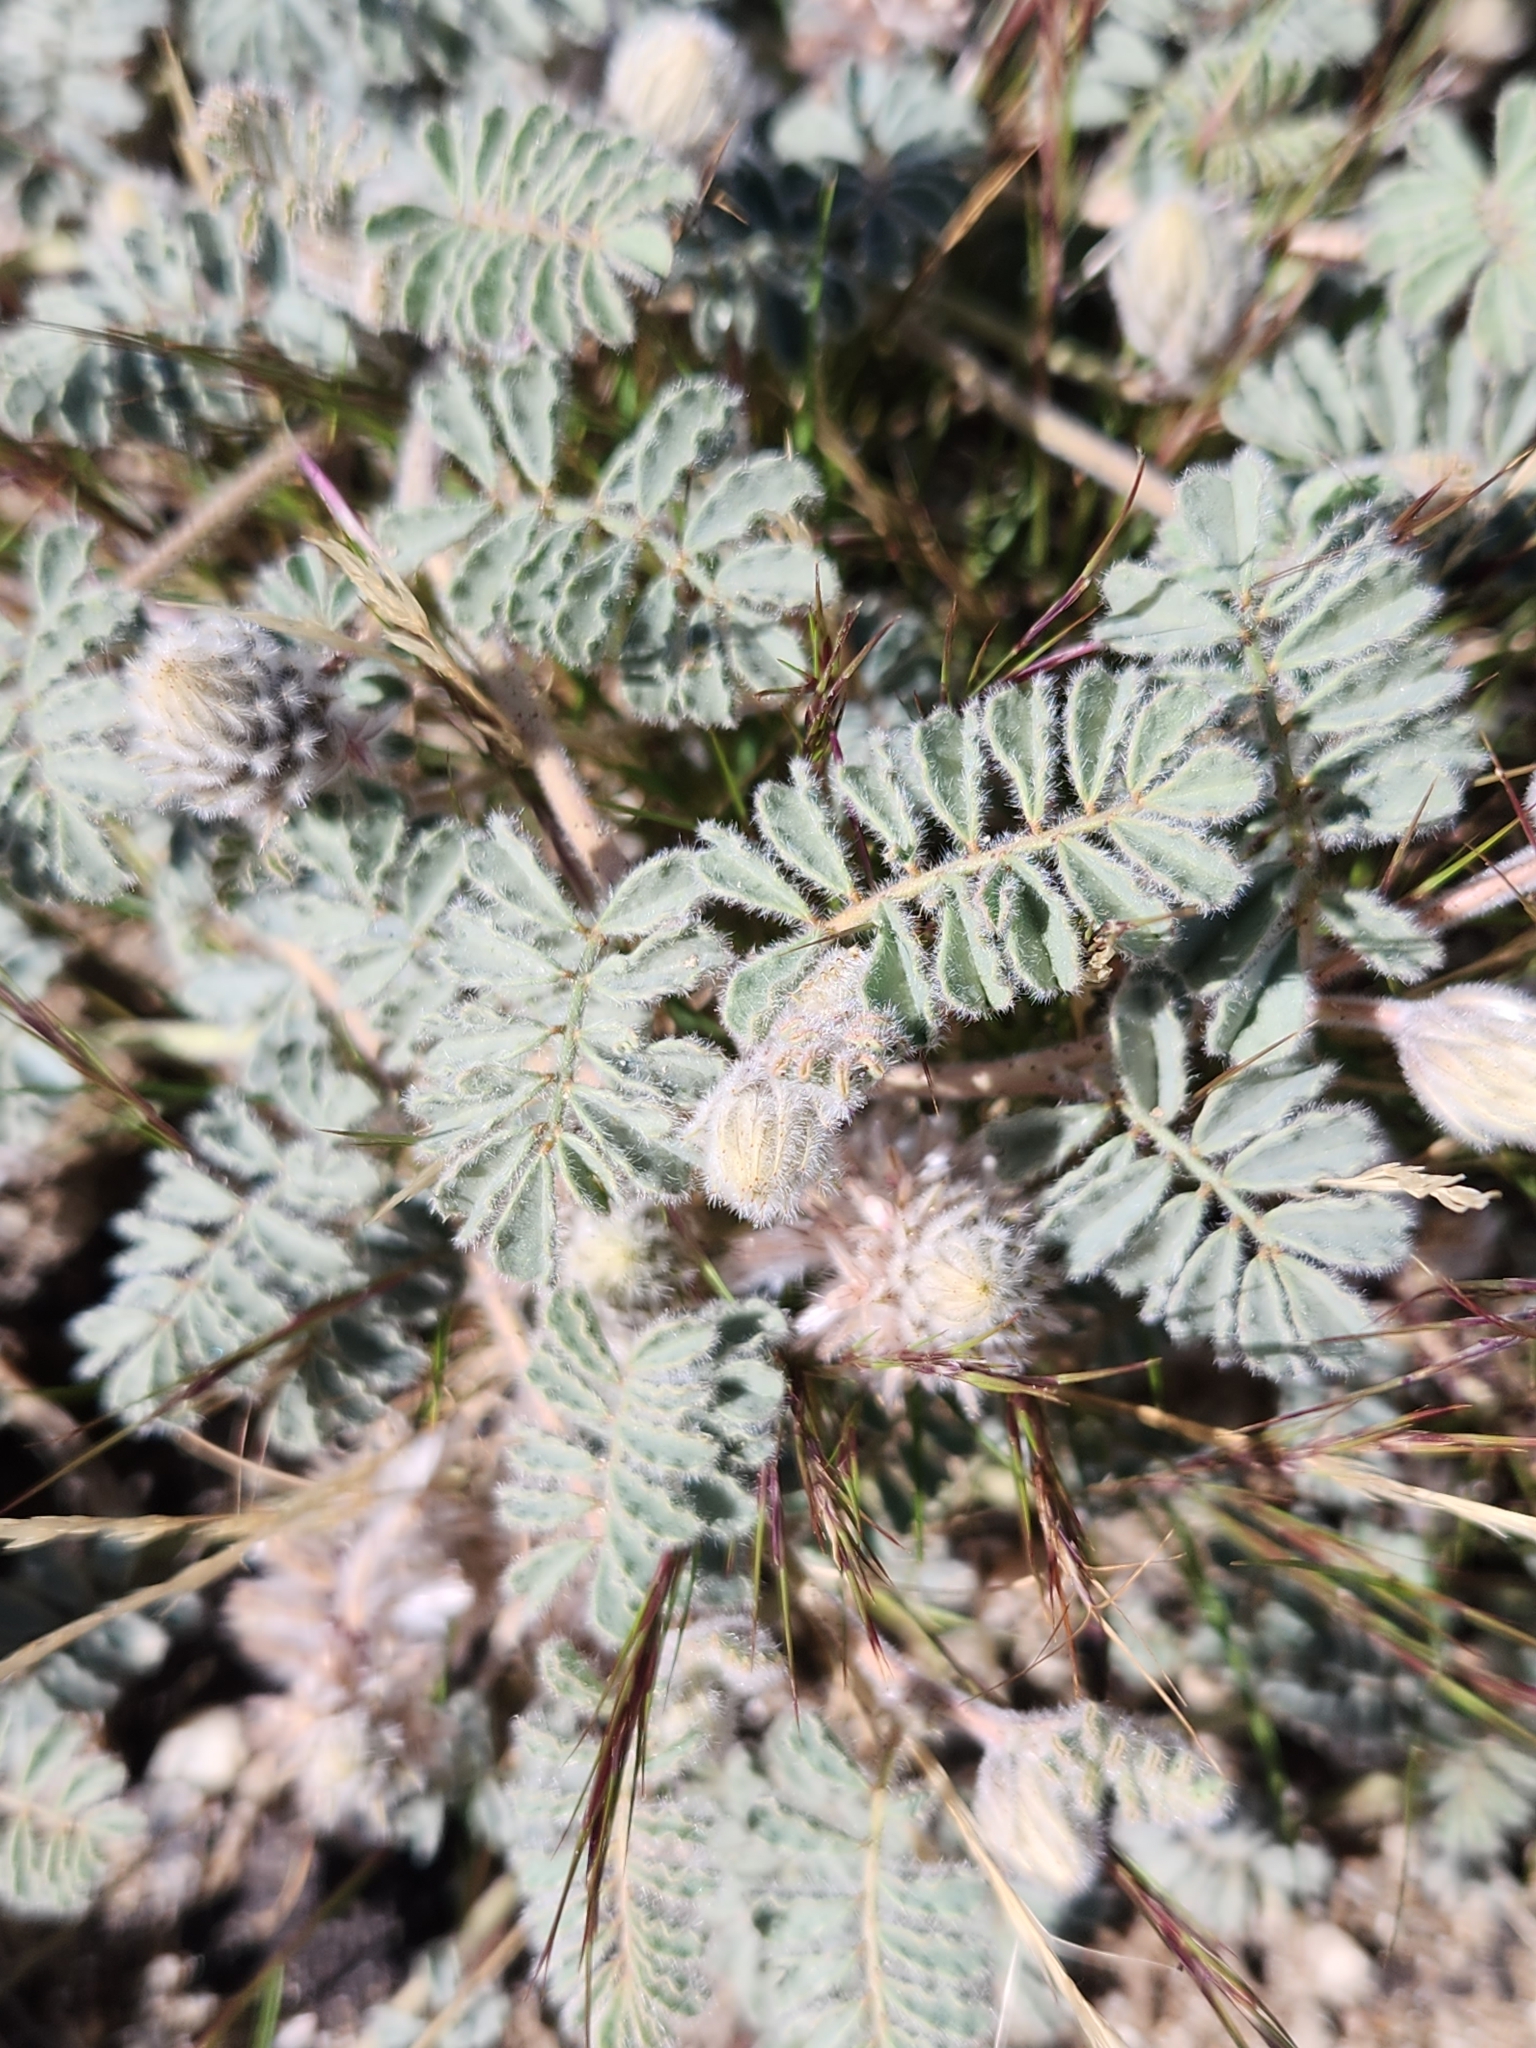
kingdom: Plantae
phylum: Tracheophyta
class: Magnoliopsida
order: Fabales
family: Fabaceae
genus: Dalea
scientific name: Dalea mollissima
